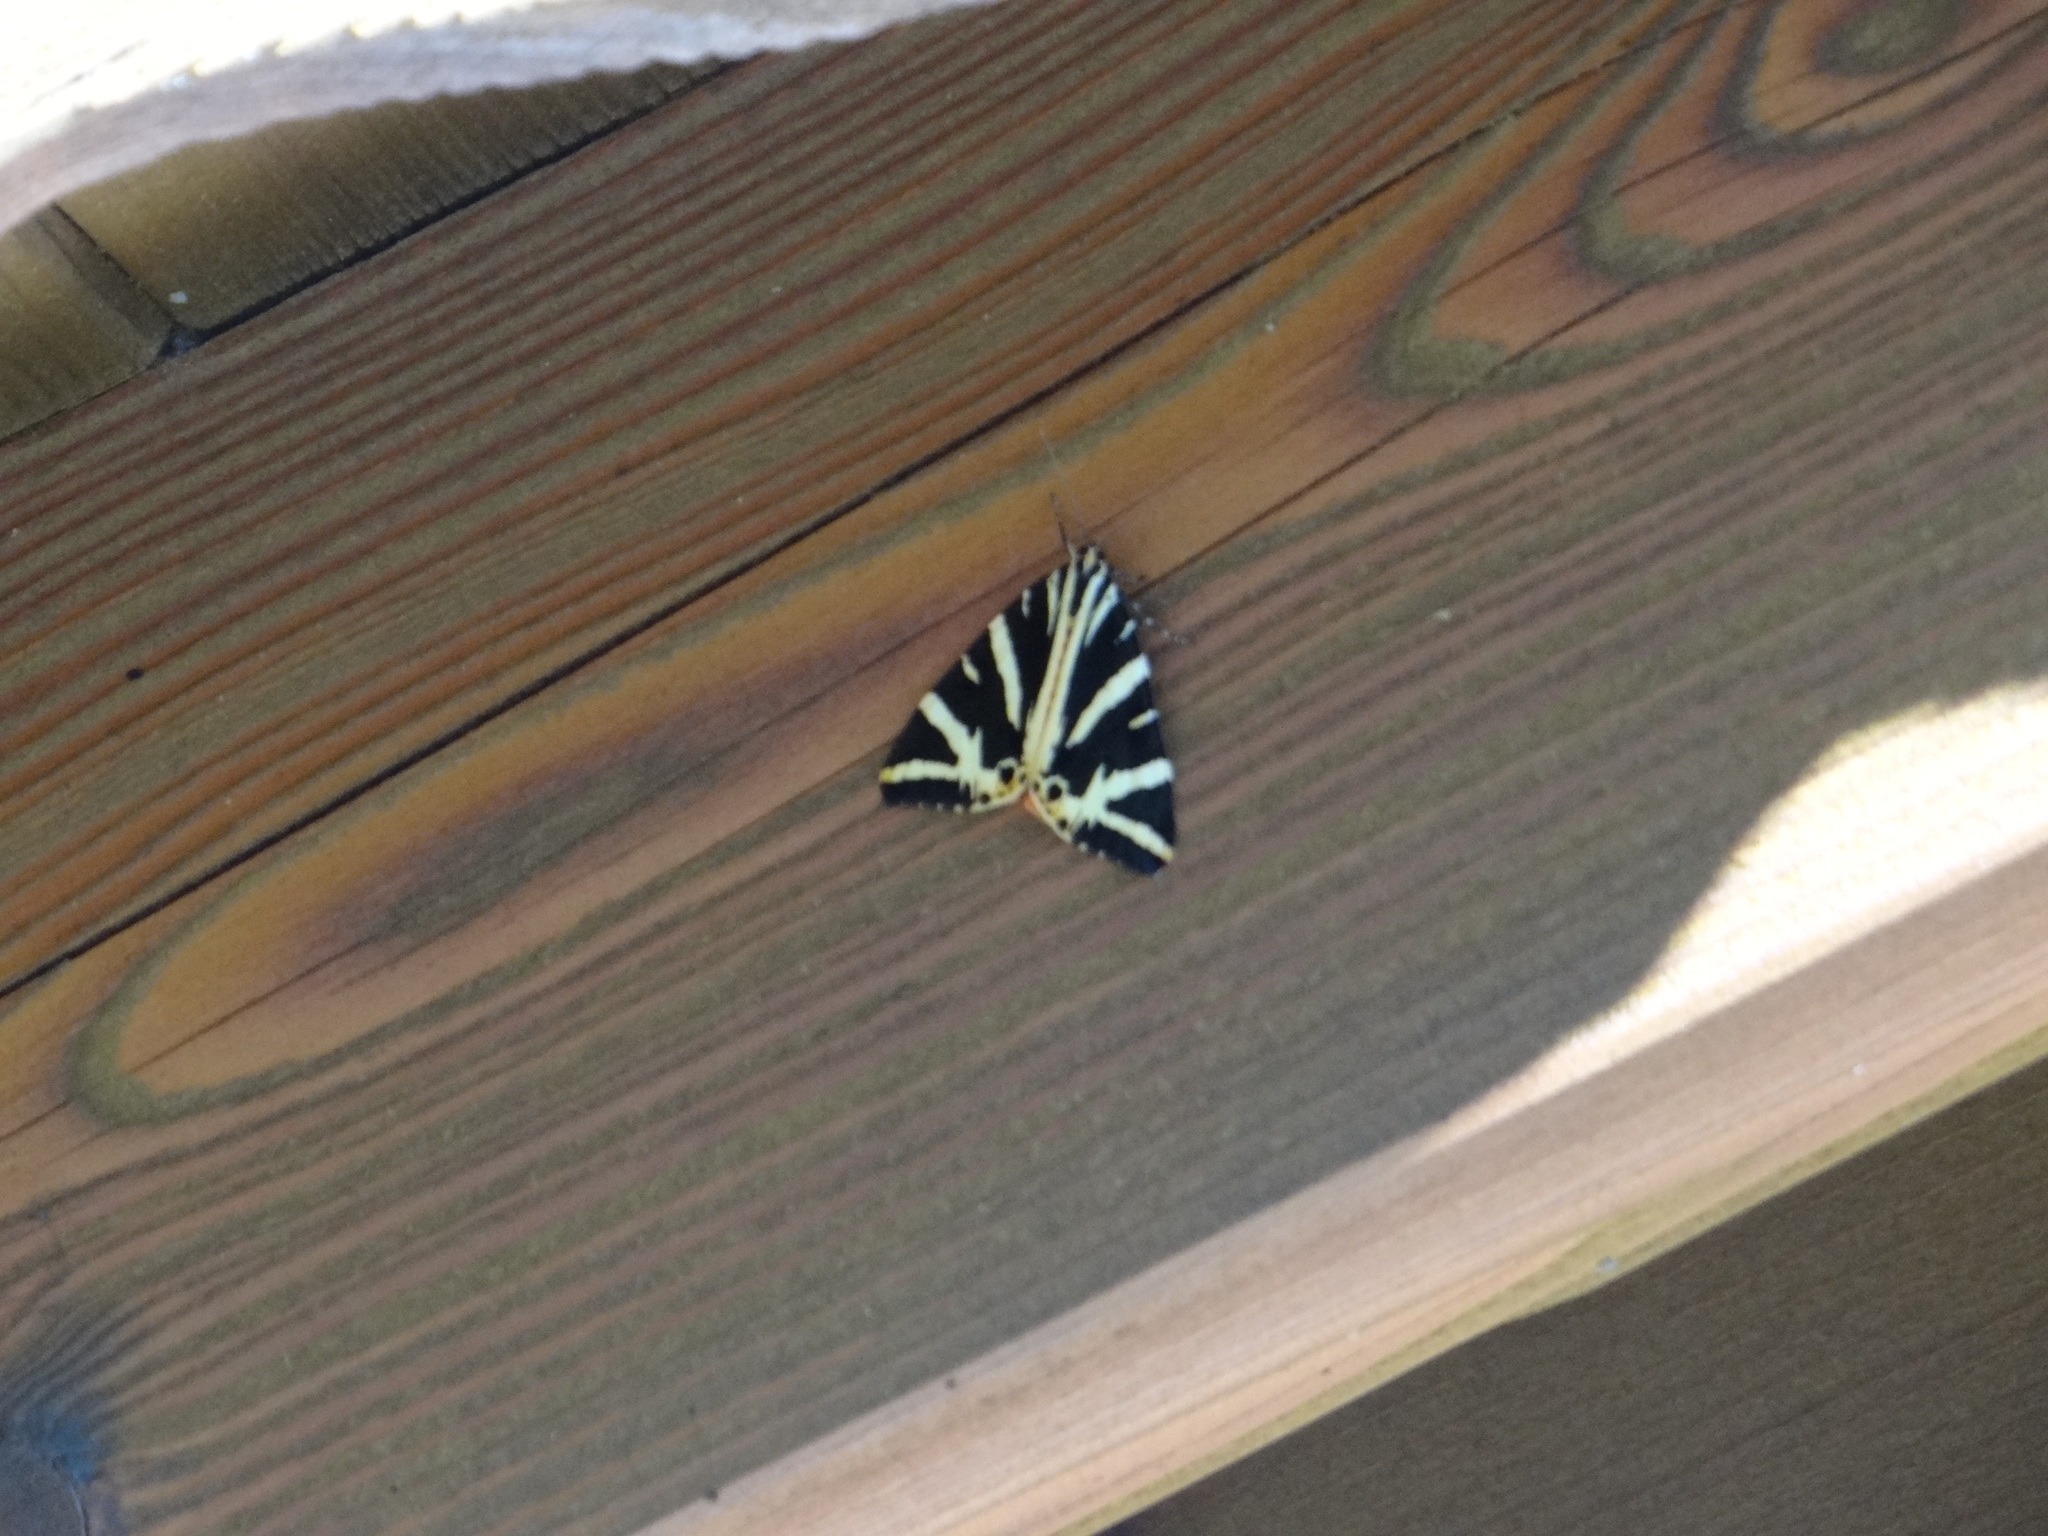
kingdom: Animalia
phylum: Arthropoda
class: Insecta
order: Lepidoptera
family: Erebidae
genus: Euplagia
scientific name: Euplagia quadripunctaria
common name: Jersey tiger
